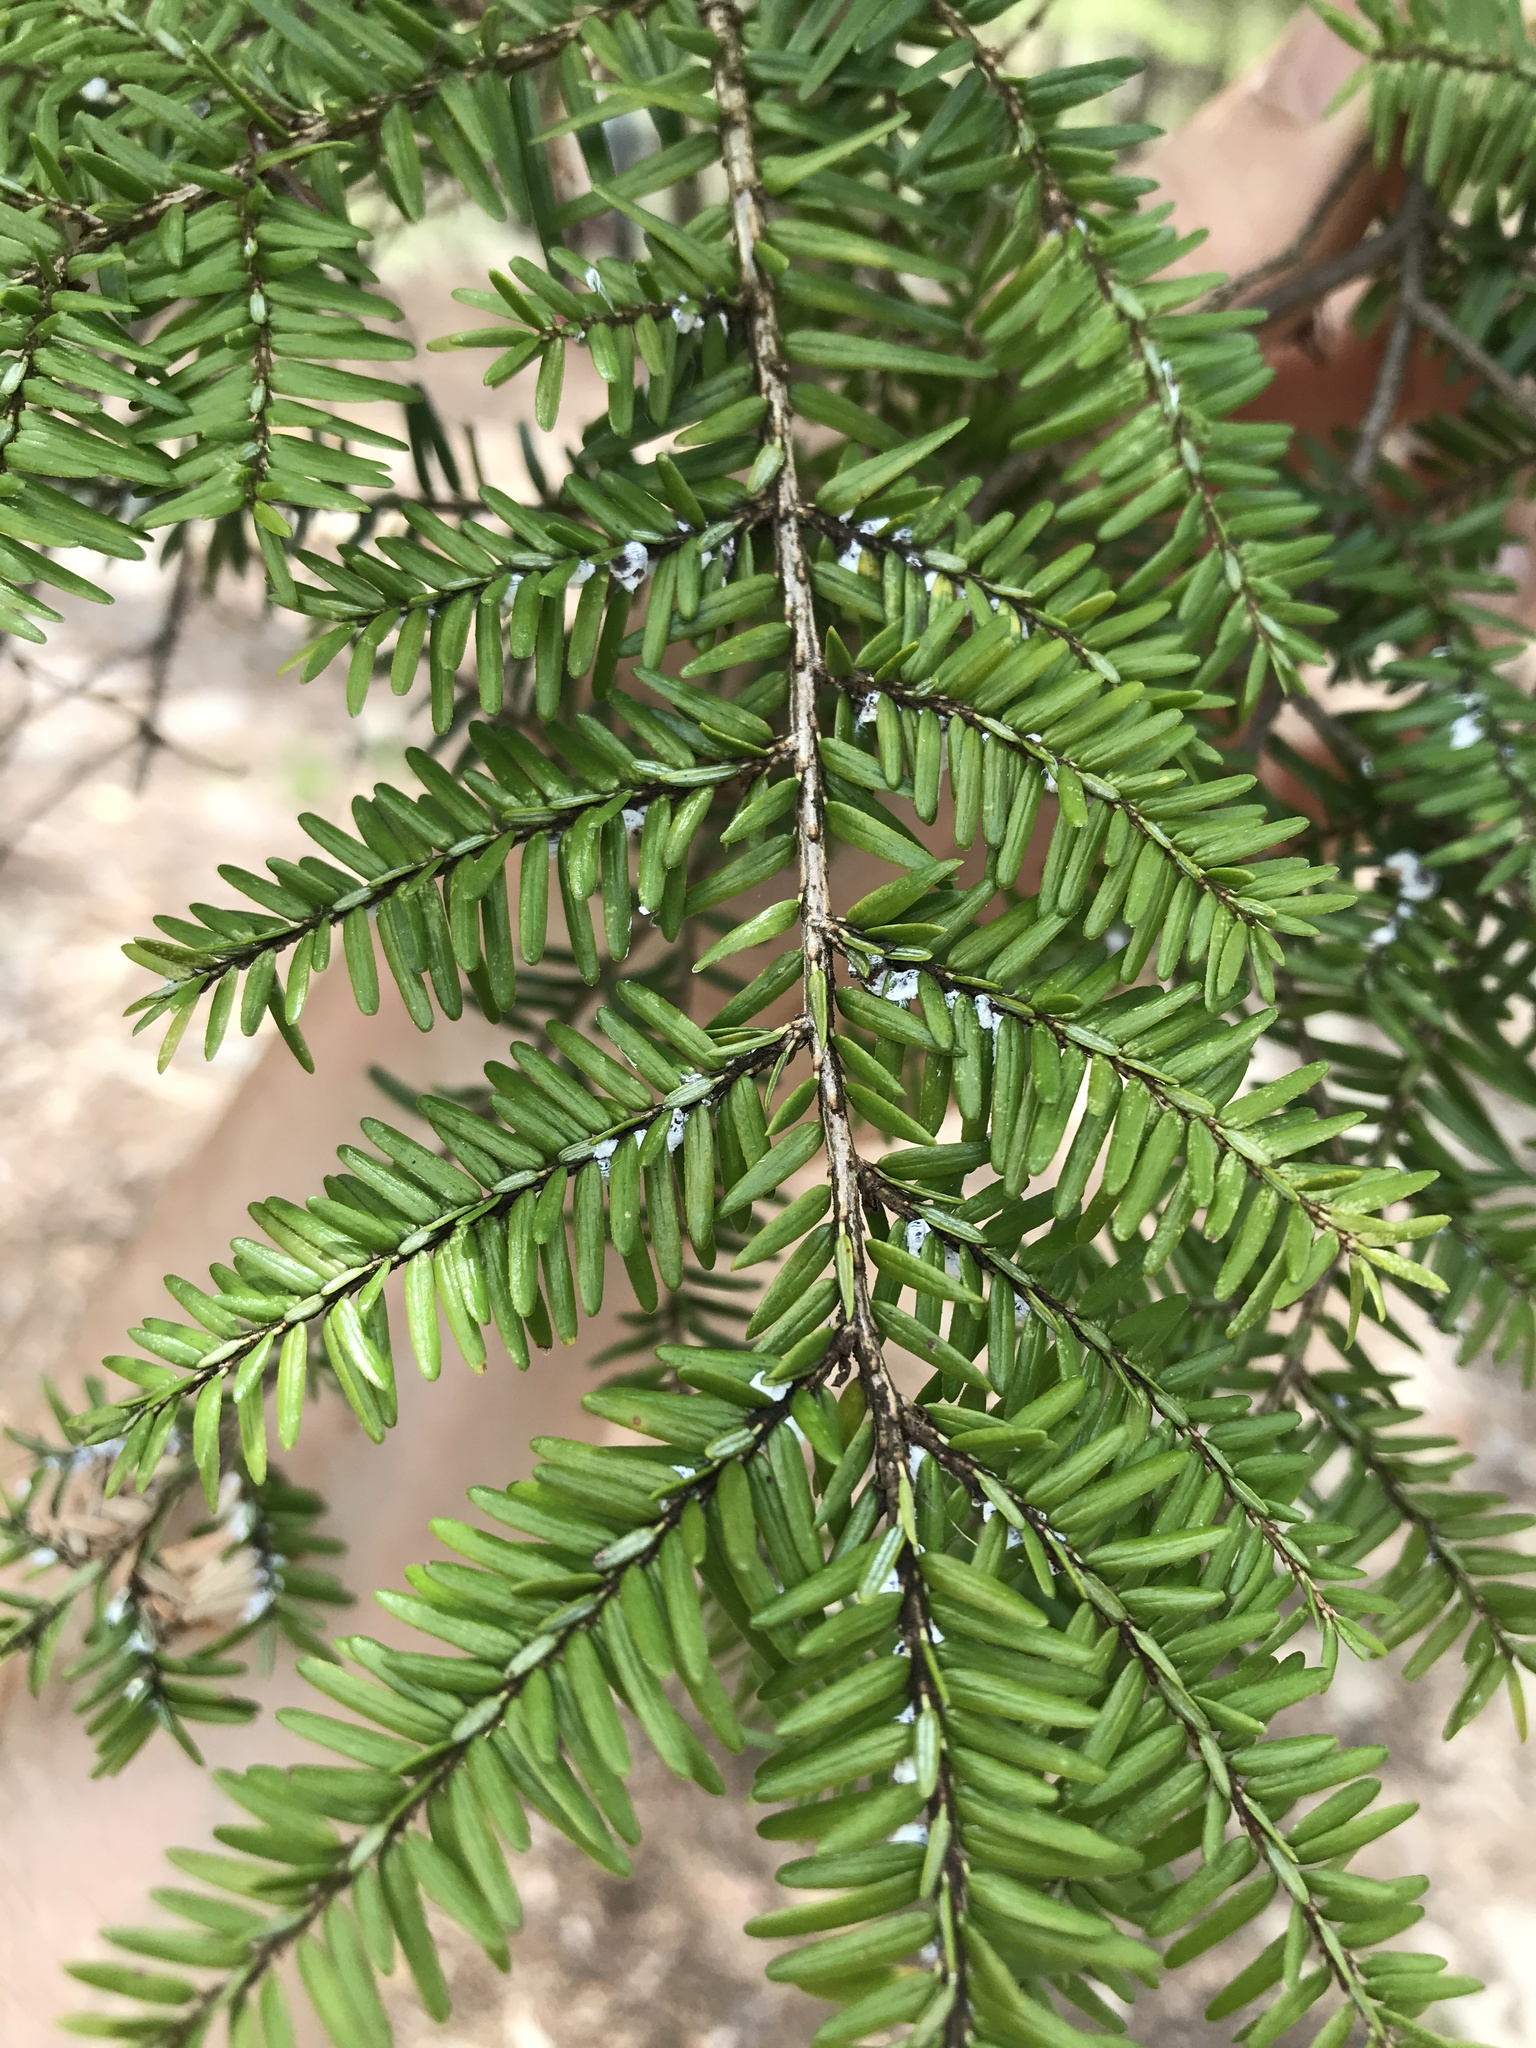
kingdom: Animalia
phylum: Arthropoda
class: Insecta
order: Hemiptera
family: Adelgidae
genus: Adelges
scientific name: Adelges tsugae
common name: Hemlock woolly adelgid
